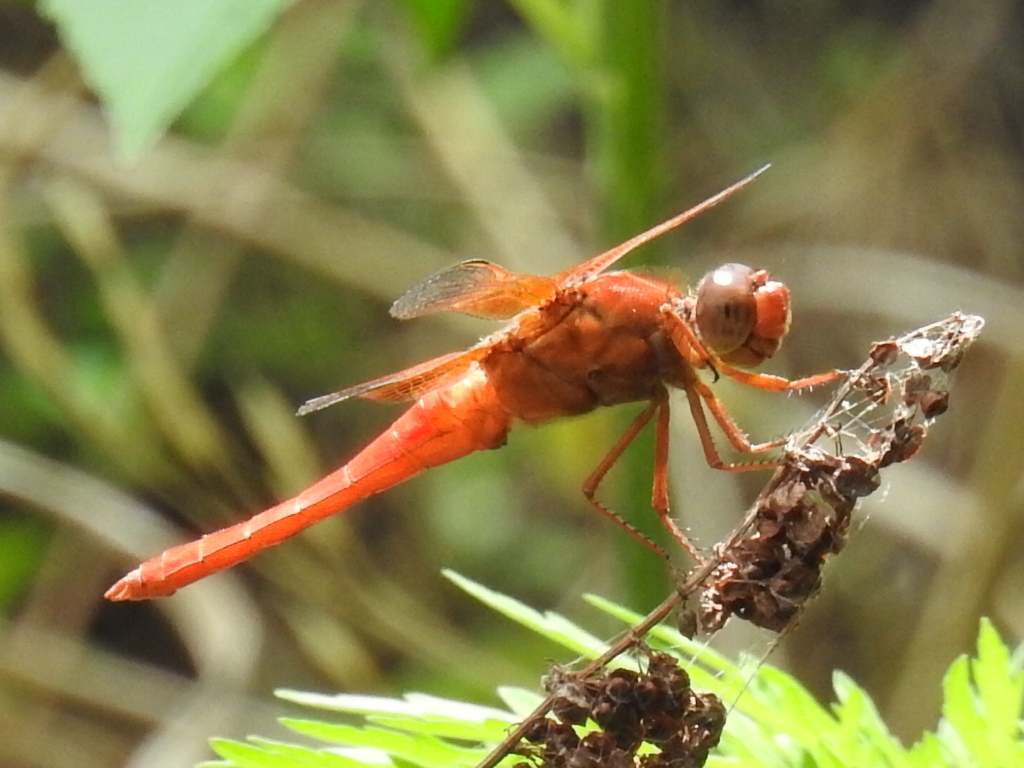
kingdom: Animalia
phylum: Arthropoda
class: Insecta
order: Odonata
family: Libellulidae
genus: Libellula
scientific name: Libellula croceipennis
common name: Neon skimmer
